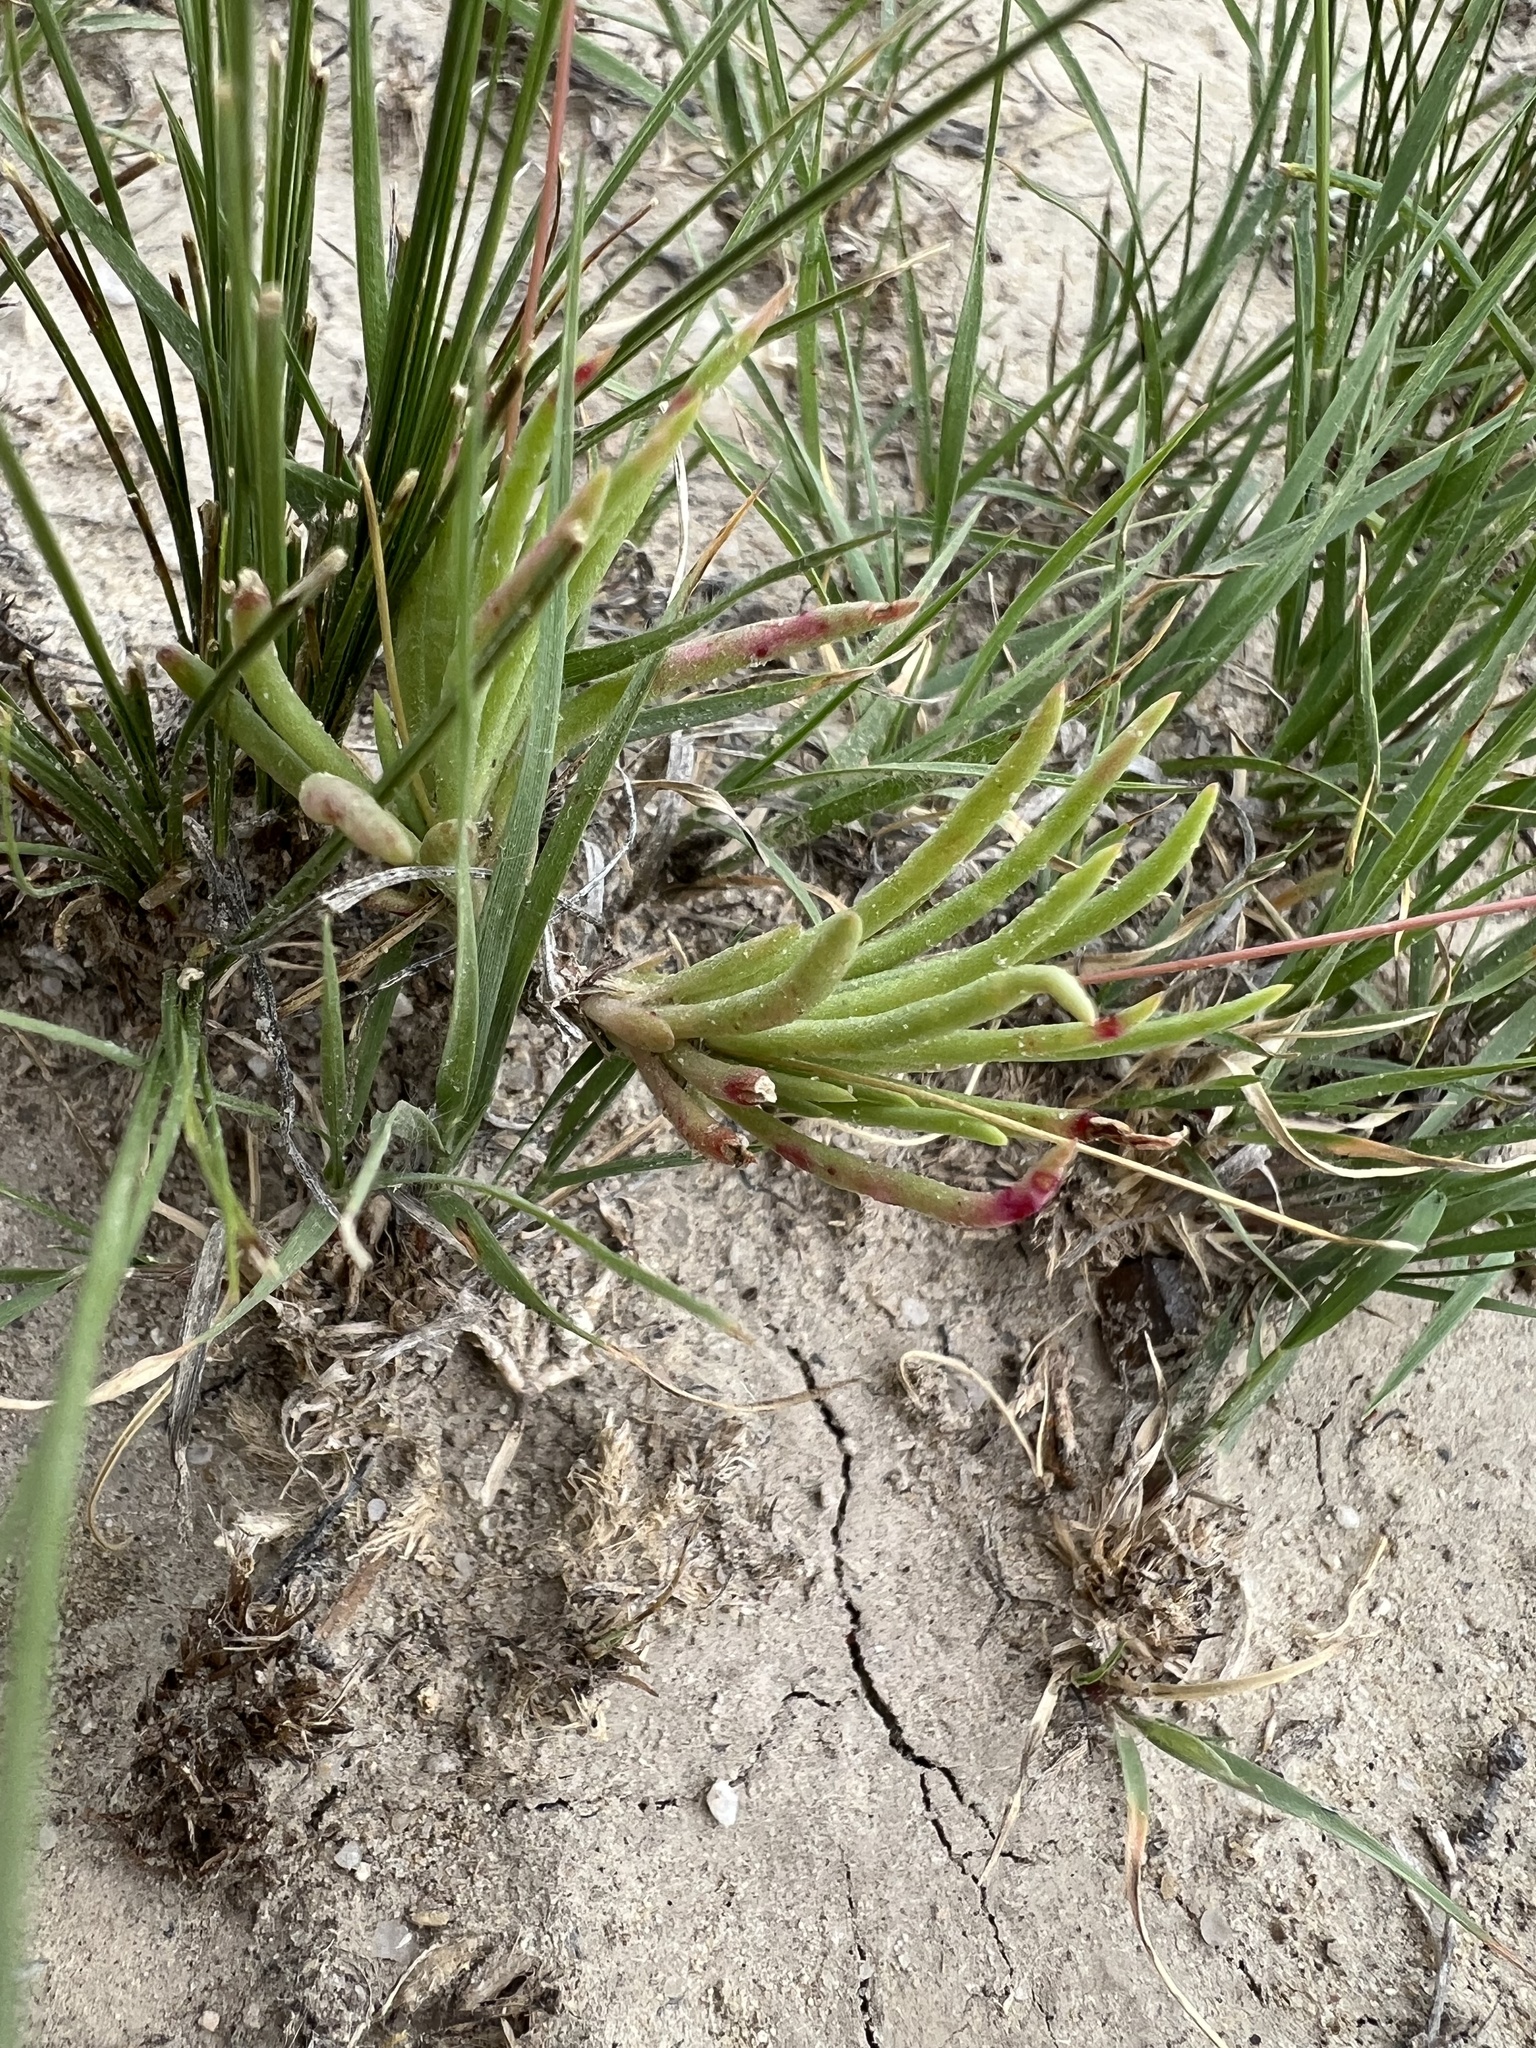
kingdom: Plantae
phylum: Tracheophyta
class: Magnoliopsida
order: Caryophyllales
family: Montiaceae
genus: Phemeranthus
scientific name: Phemeranthus confertiflorus
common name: New mexico fameflower
